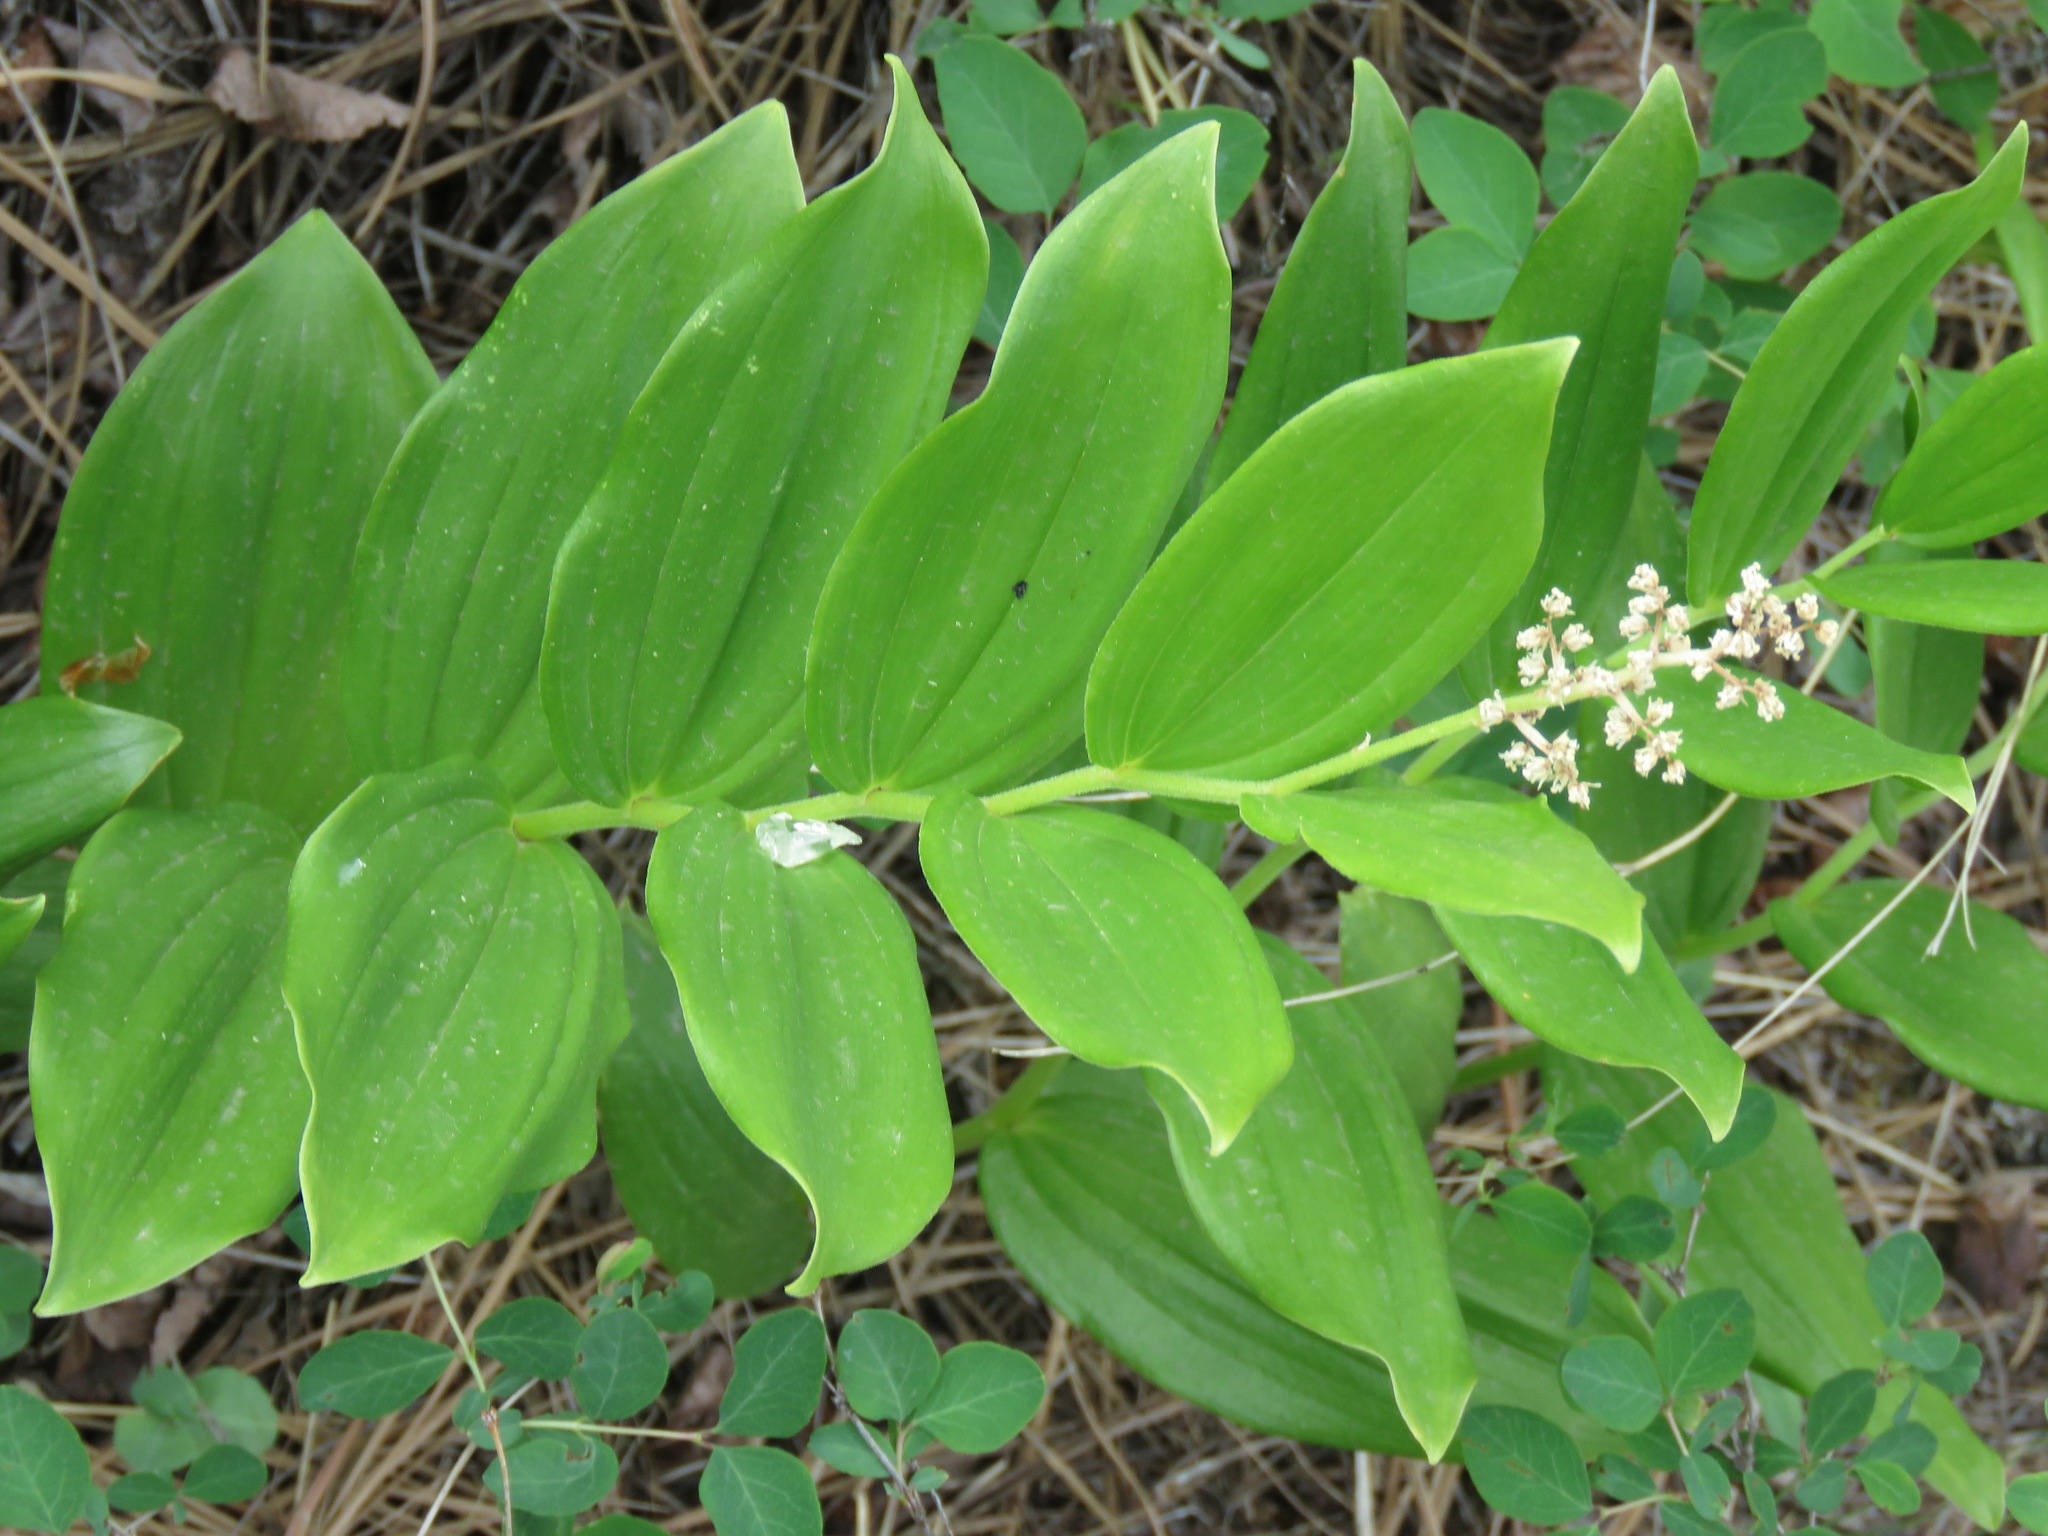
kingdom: Plantae
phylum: Tracheophyta
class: Liliopsida
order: Asparagales
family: Asparagaceae
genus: Maianthemum
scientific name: Maianthemum racemosum
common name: False spikenard
